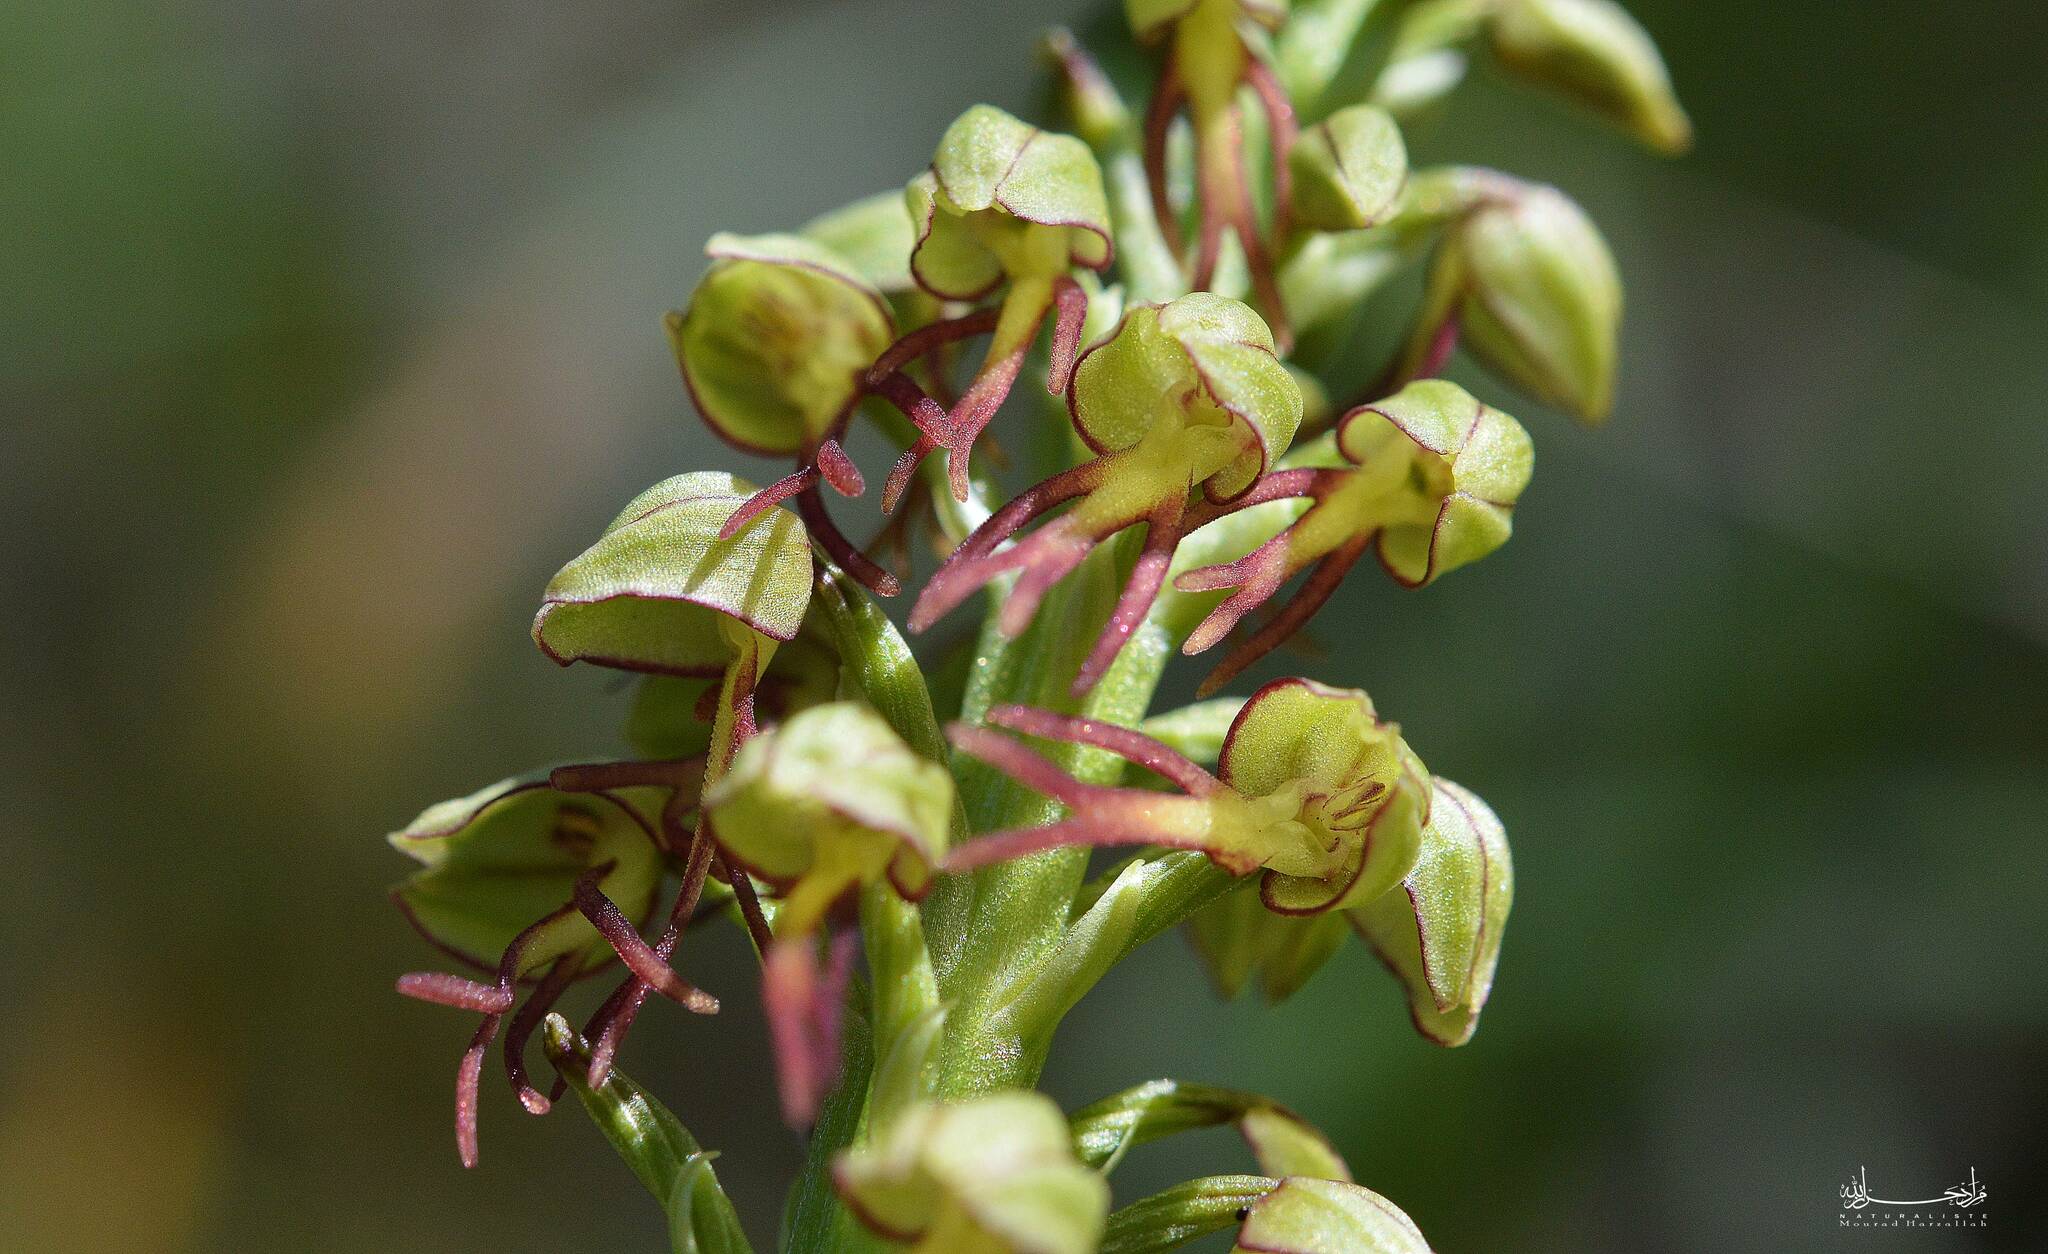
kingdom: Plantae
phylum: Tracheophyta
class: Liliopsida
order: Asparagales
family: Orchidaceae
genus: Orchis
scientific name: Orchis anthropophora
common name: Man orchid
